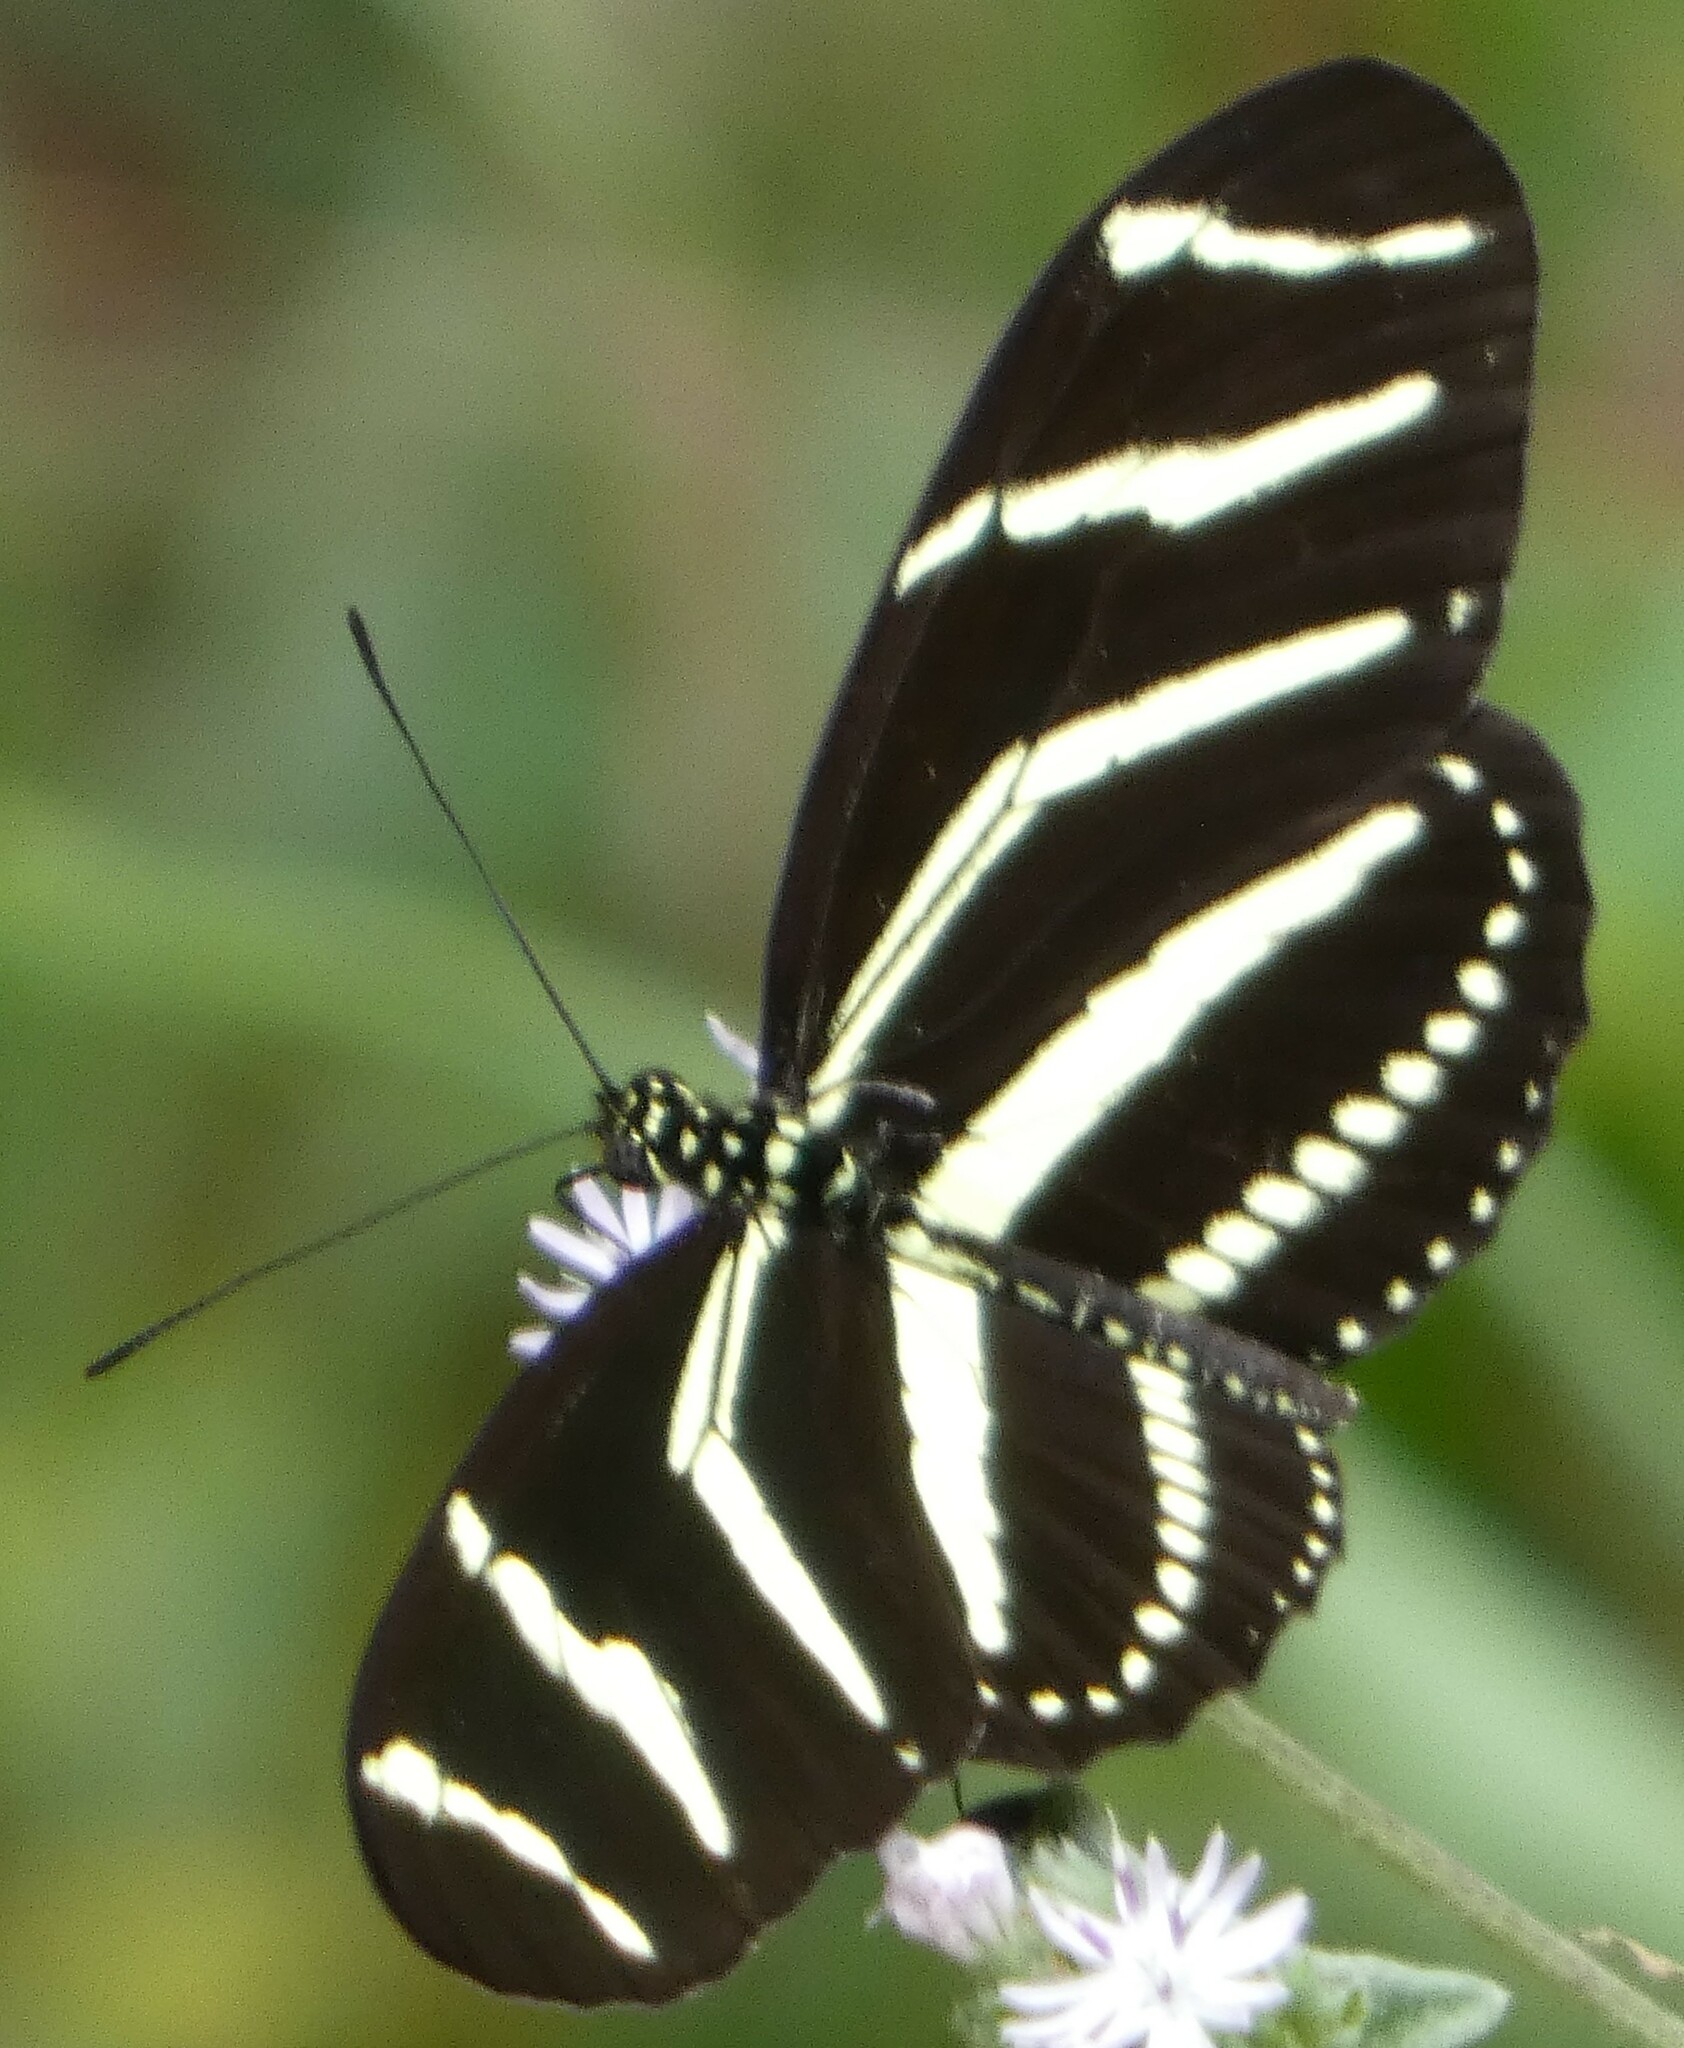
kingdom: Animalia
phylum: Arthropoda
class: Insecta
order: Lepidoptera
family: Nymphalidae
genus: Heliconius
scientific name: Heliconius charithonia
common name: Zebra long wing
